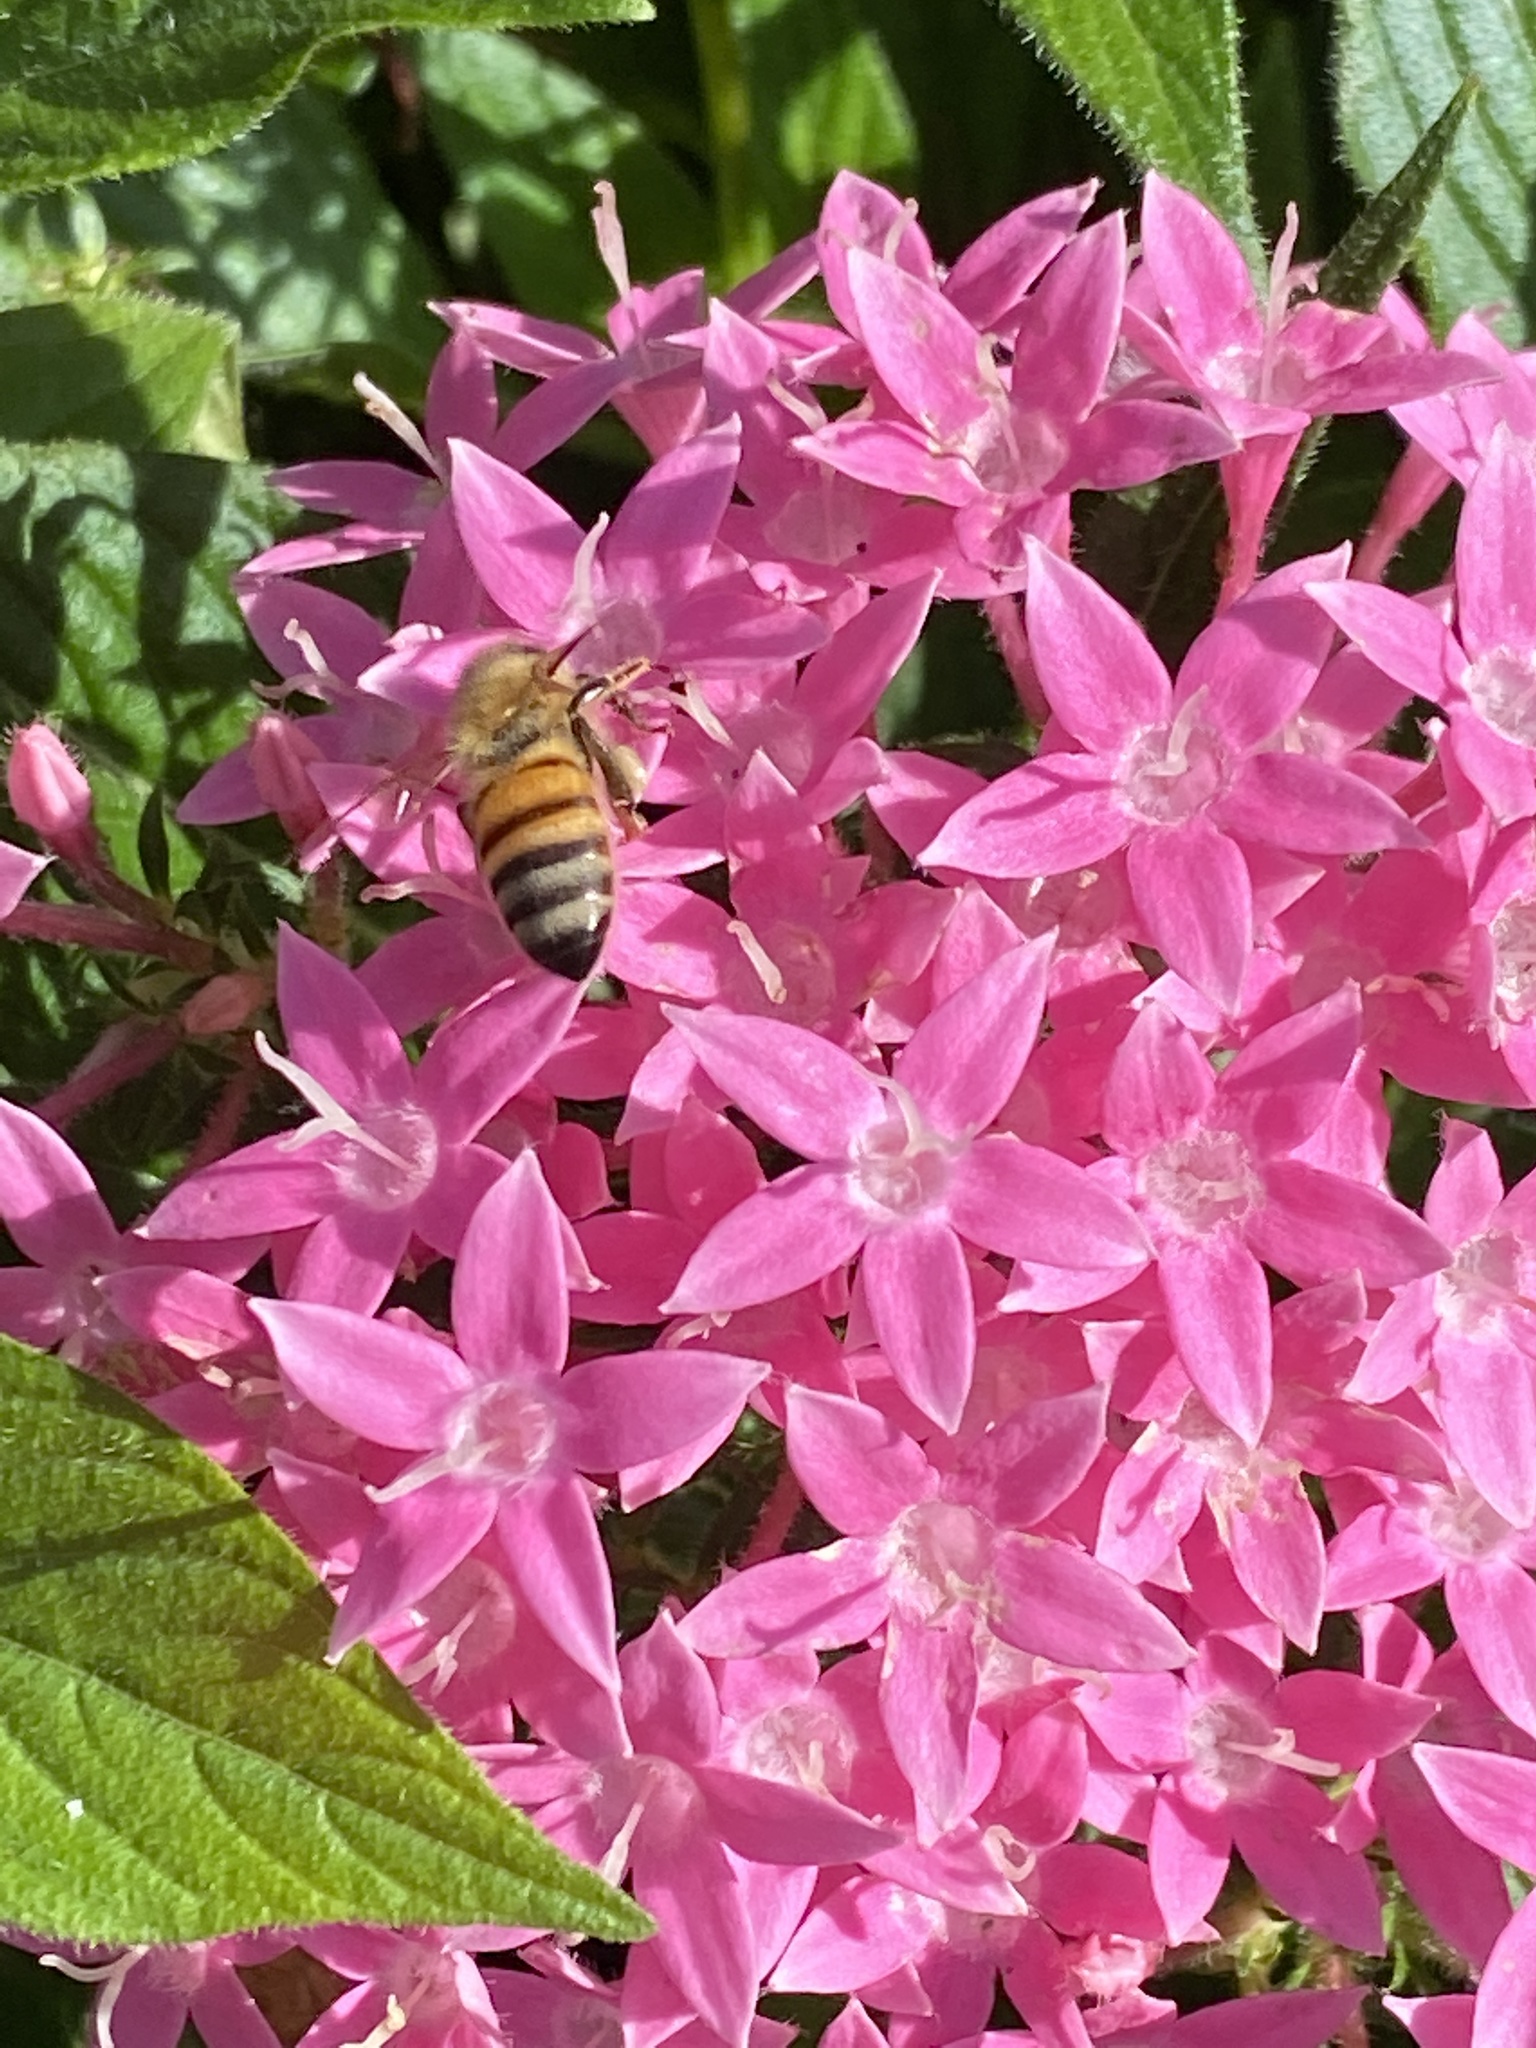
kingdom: Animalia
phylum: Arthropoda
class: Insecta
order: Hymenoptera
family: Apidae
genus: Apis
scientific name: Apis mellifera
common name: Honey bee
